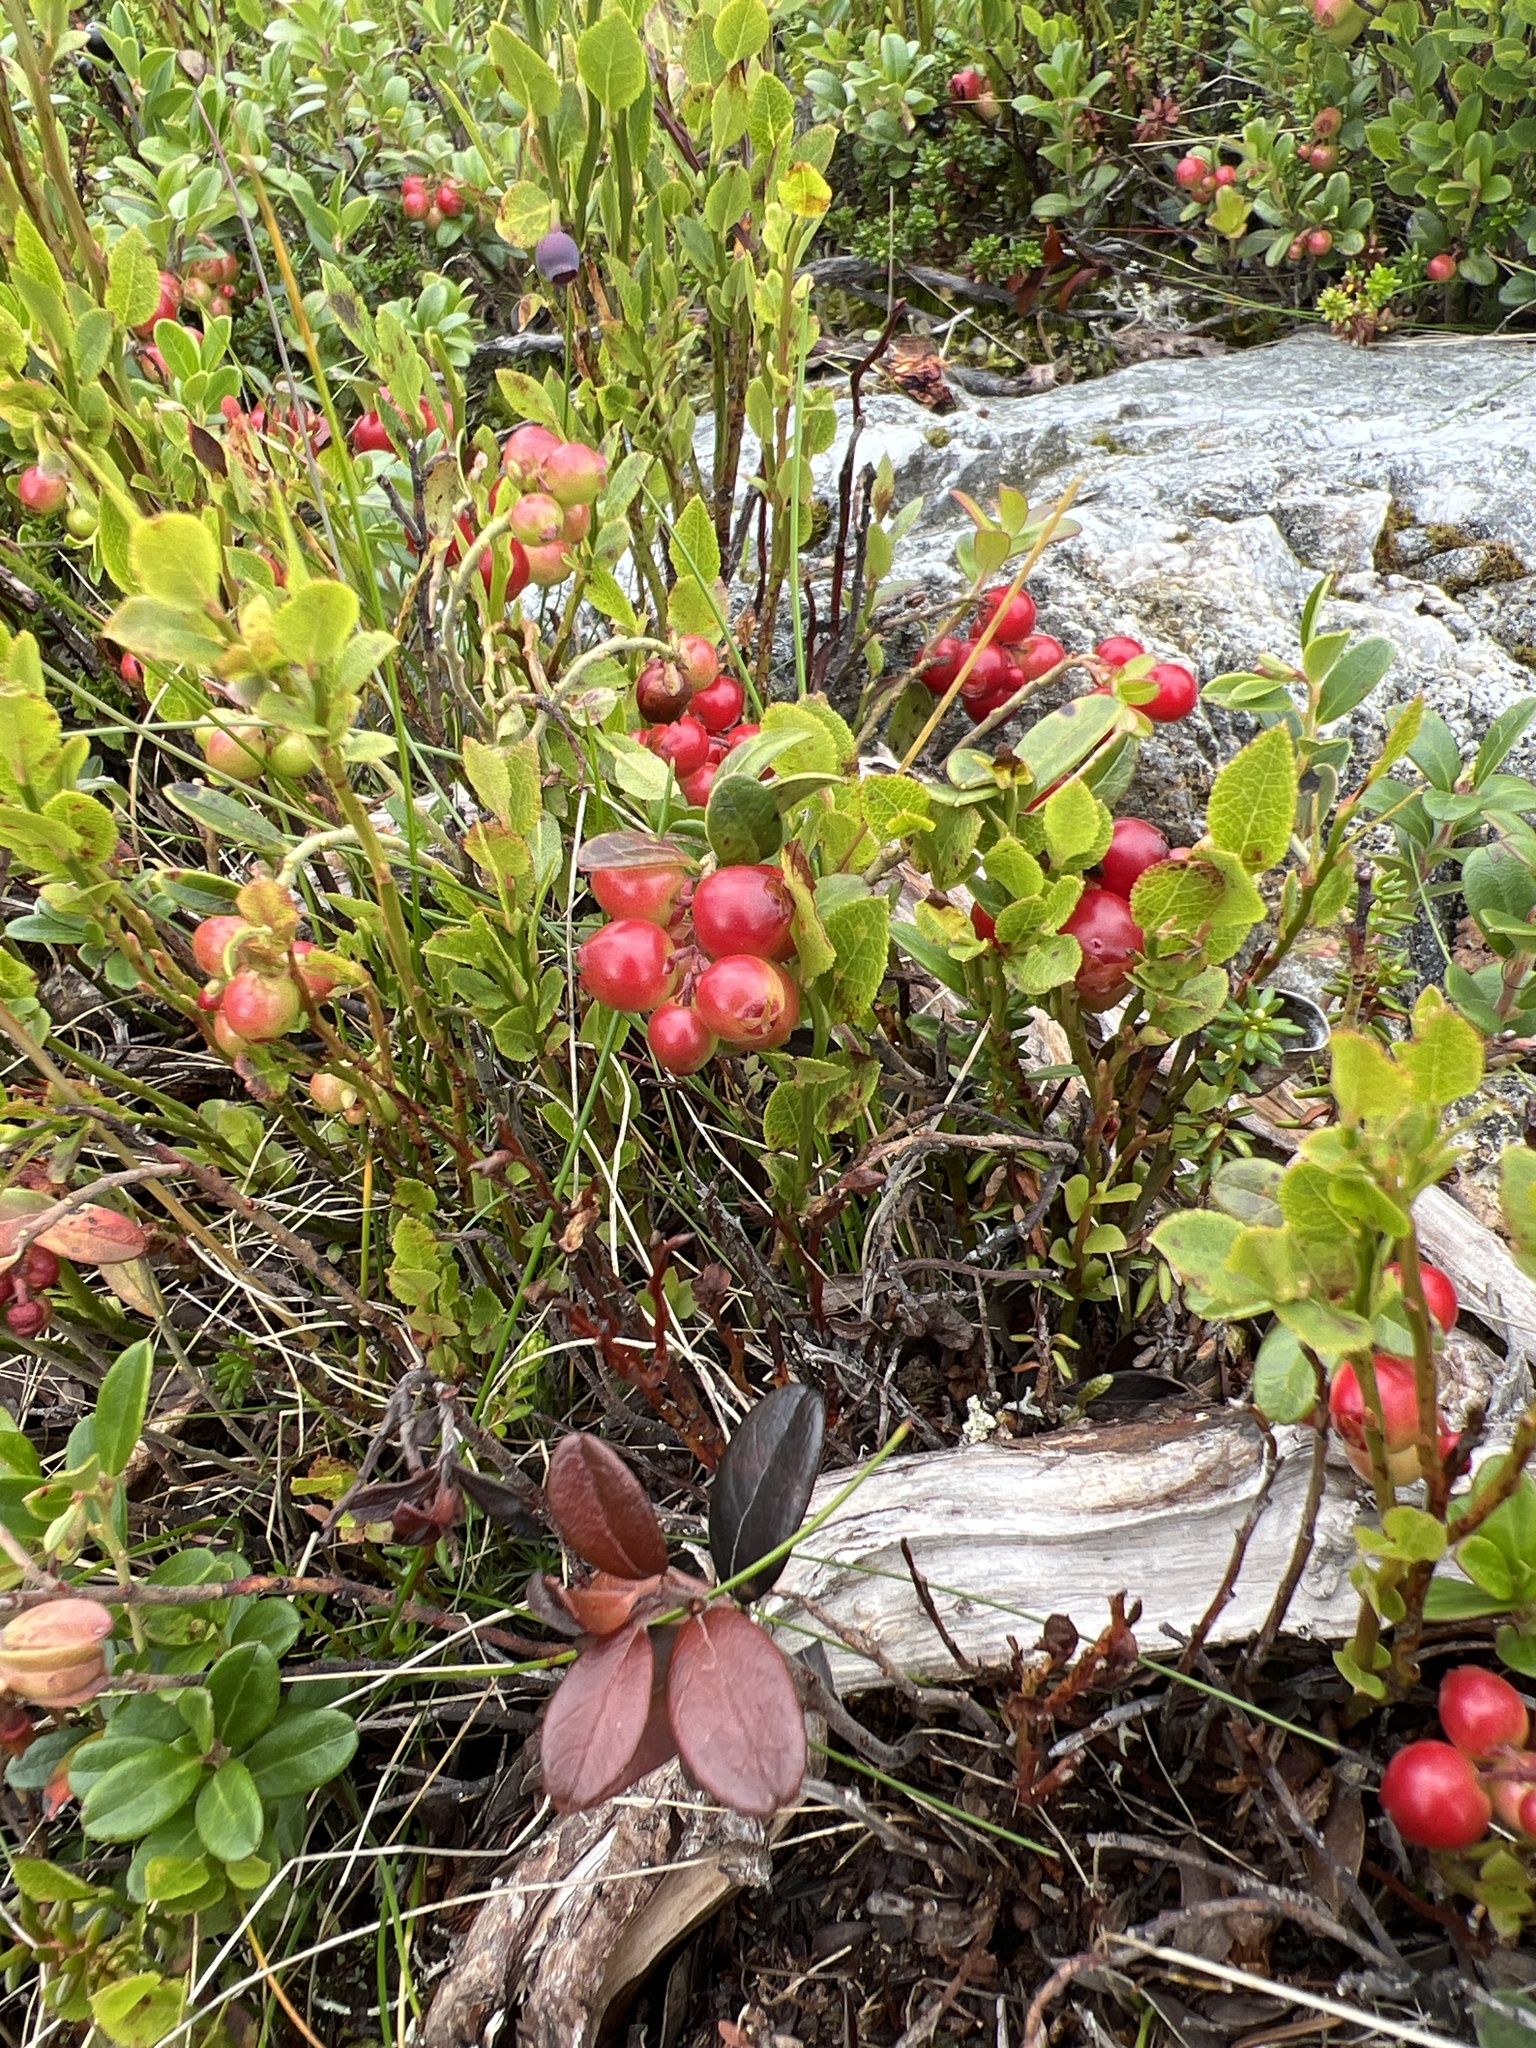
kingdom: Plantae
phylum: Tracheophyta
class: Magnoliopsida
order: Ericales
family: Ericaceae
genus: Vaccinium
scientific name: Vaccinium vitis-idaea
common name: Cowberry
